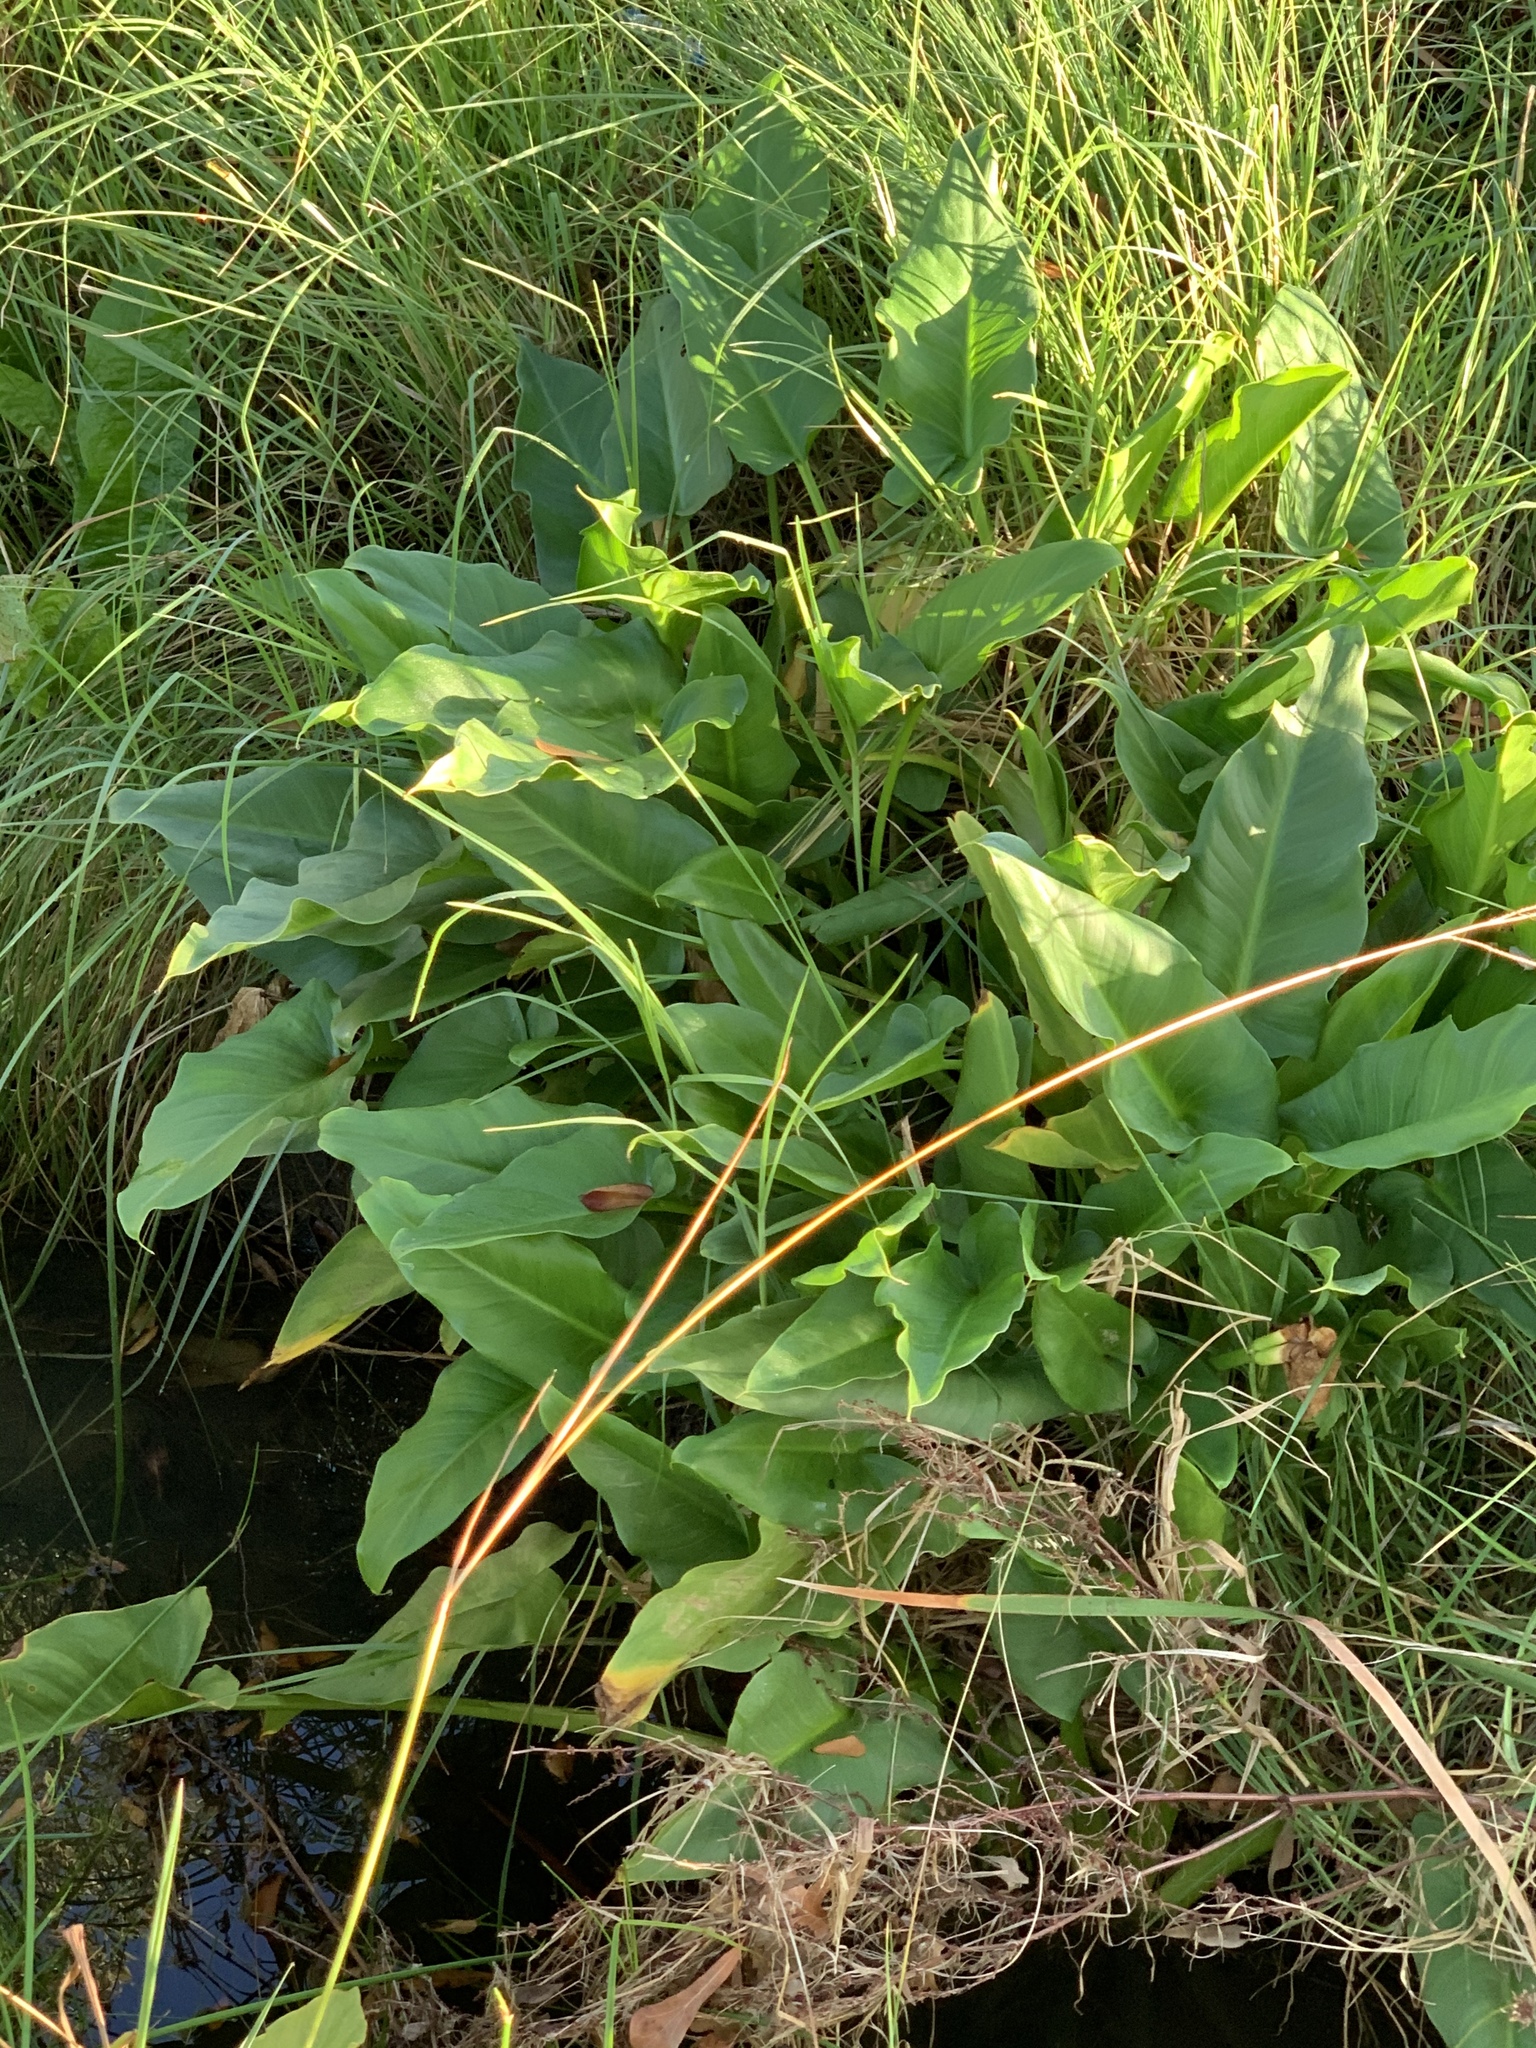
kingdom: Plantae
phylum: Tracheophyta
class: Liliopsida
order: Alismatales
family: Araceae
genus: Zantedeschia
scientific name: Zantedeschia aethiopica
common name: Altar-lily
